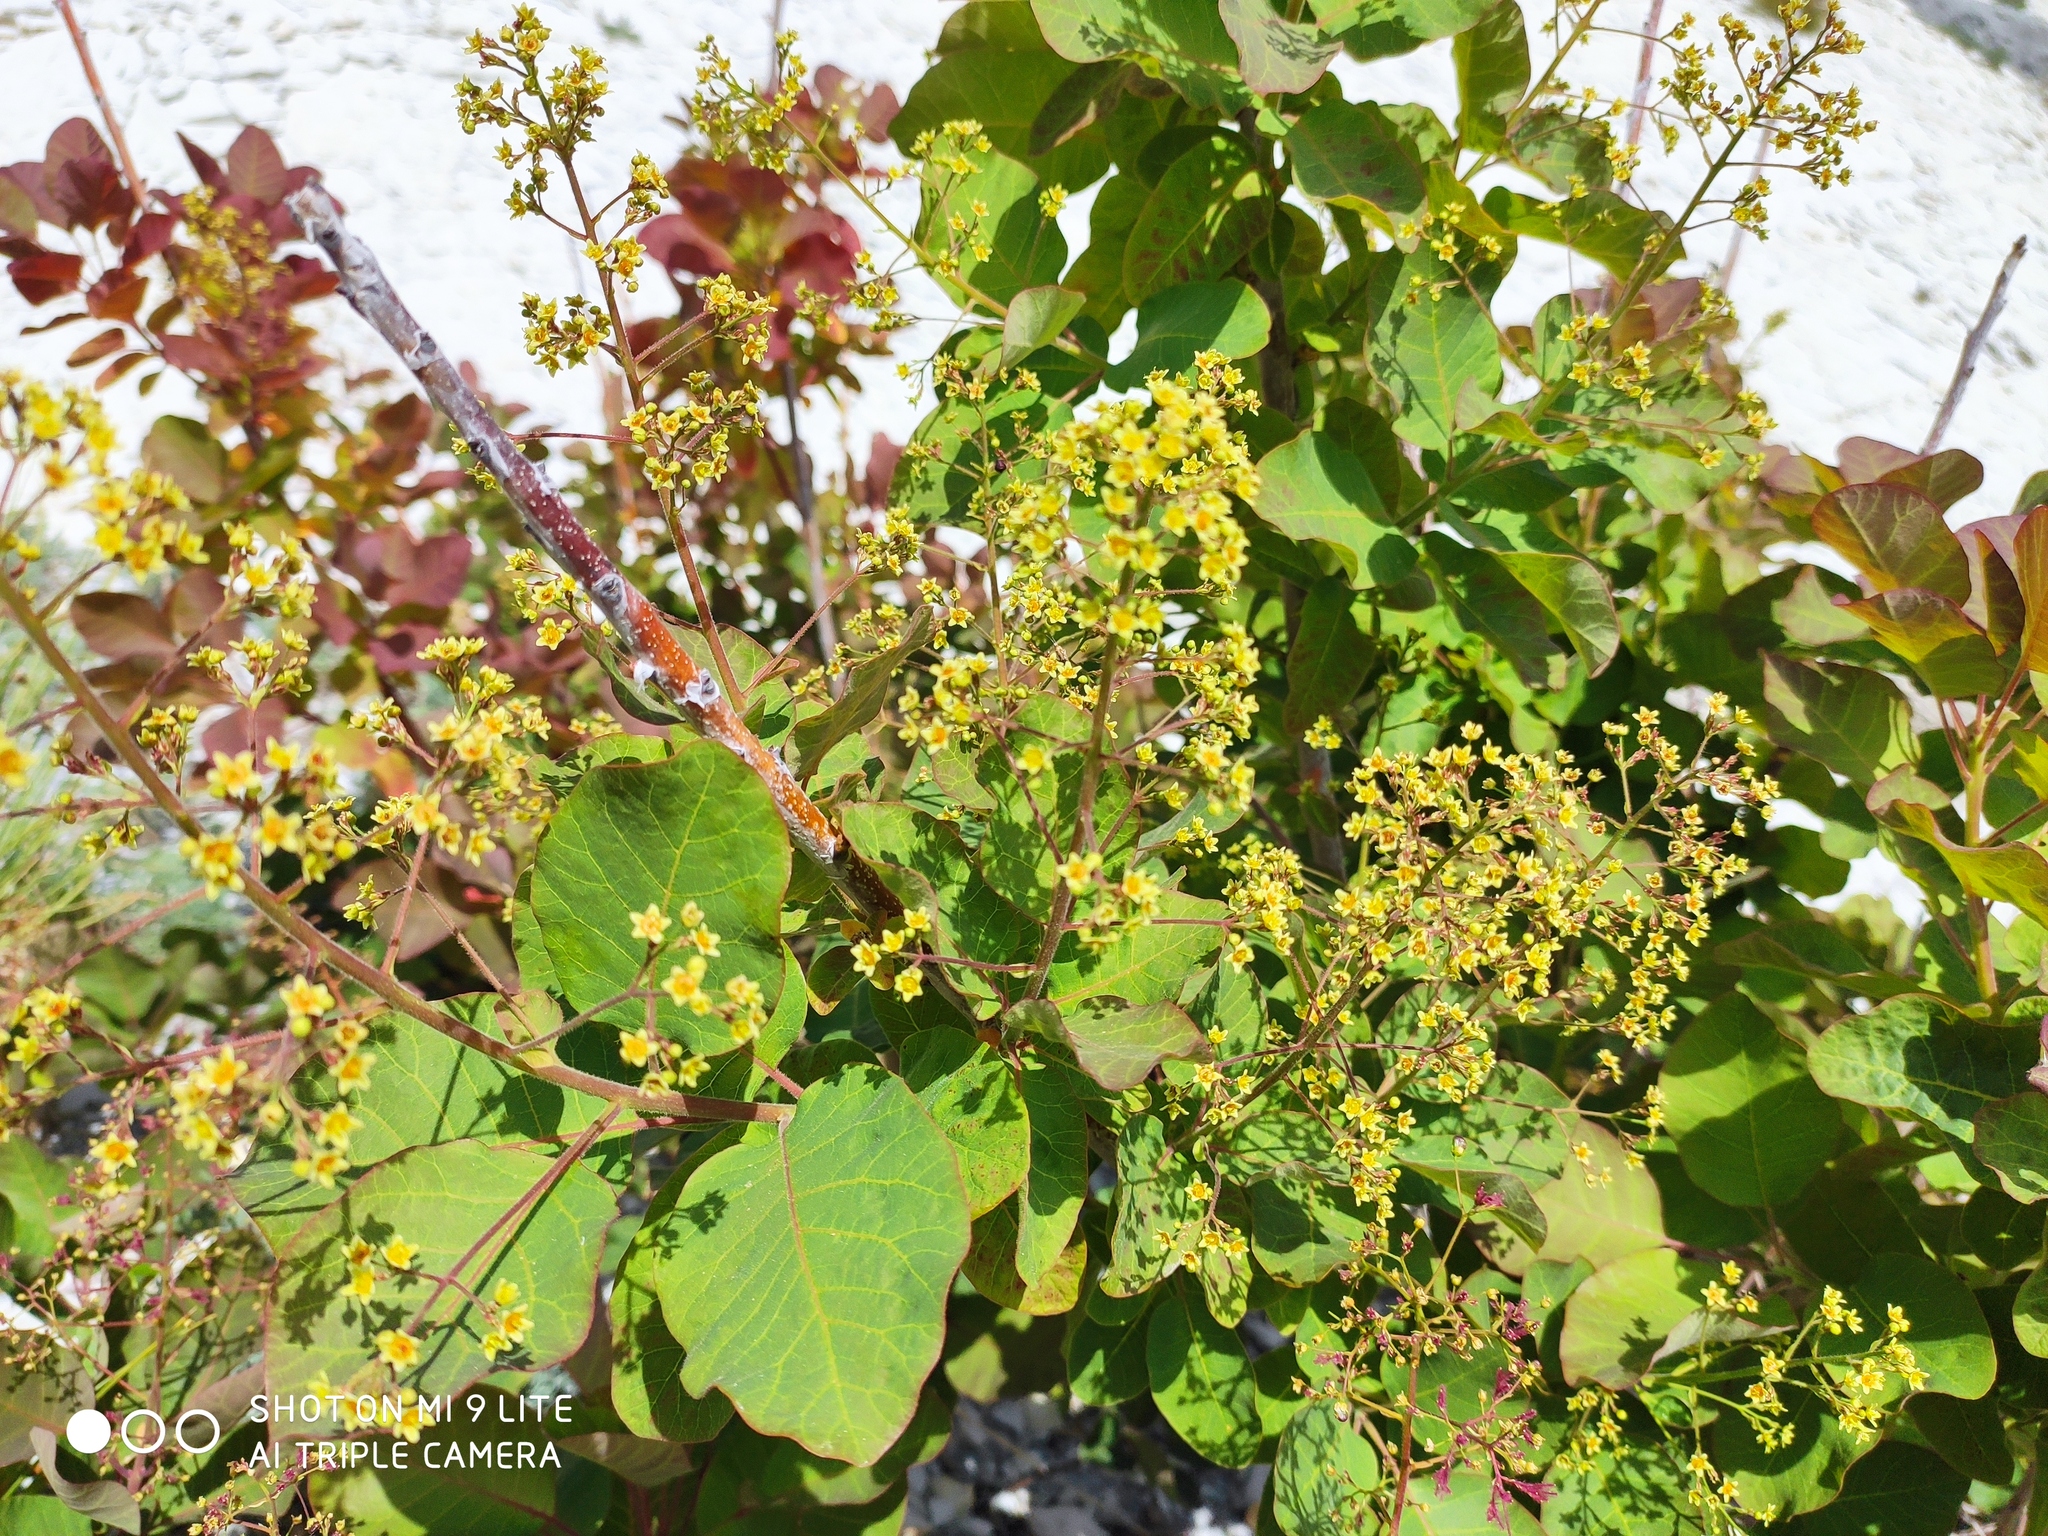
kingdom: Plantae
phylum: Tracheophyta
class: Magnoliopsida
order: Sapindales
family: Anacardiaceae
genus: Cotinus
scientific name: Cotinus coggygria
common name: Smoke-tree
